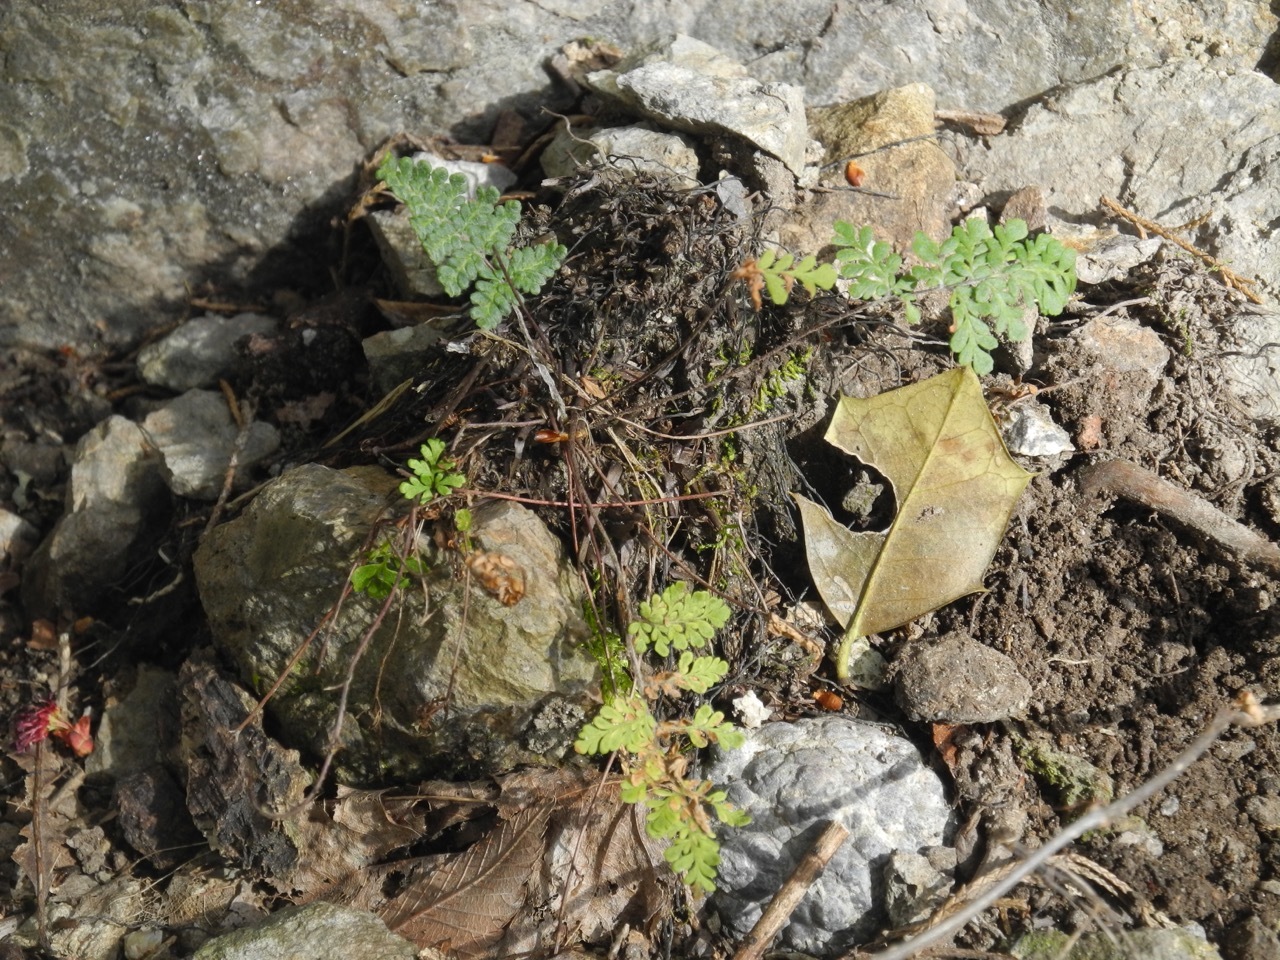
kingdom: Plantae
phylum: Tracheophyta
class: Polypodiopsida
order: Polypodiales
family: Pteridaceae
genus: Myriopteris
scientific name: Myriopteris lanosa
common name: Hairy lip fern
